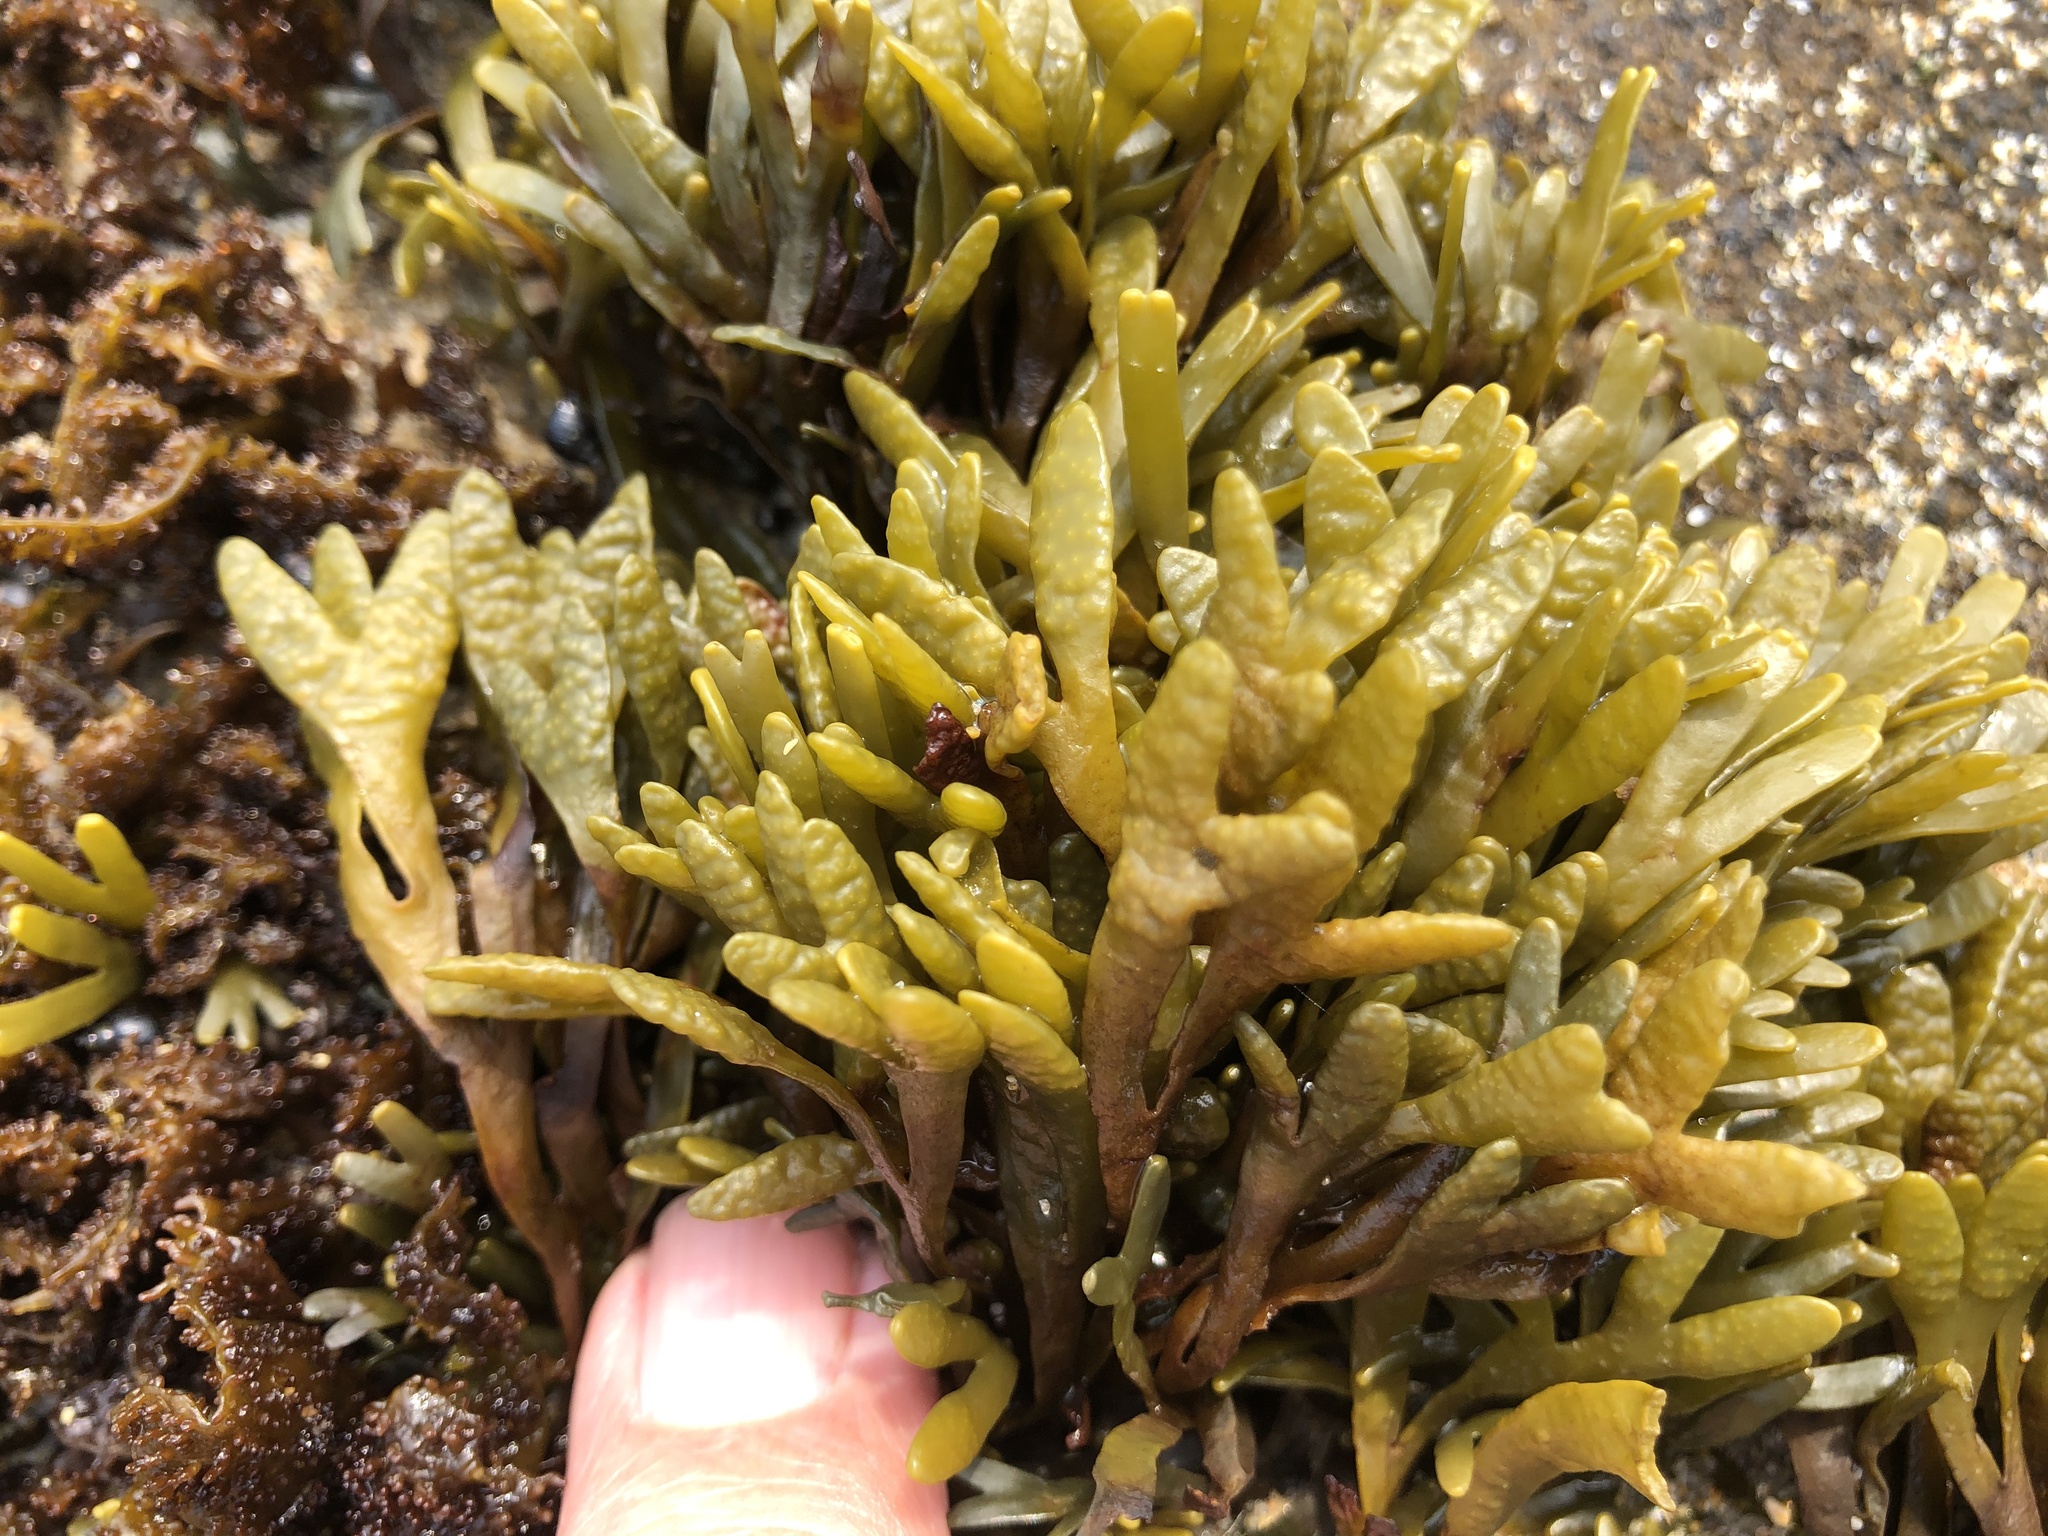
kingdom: Chromista
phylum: Ochrophyta
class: Phaeophyceae
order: Fucales
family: Fucaceae
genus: Pelvetiopsis
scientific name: Pelvetiopsis limitata
